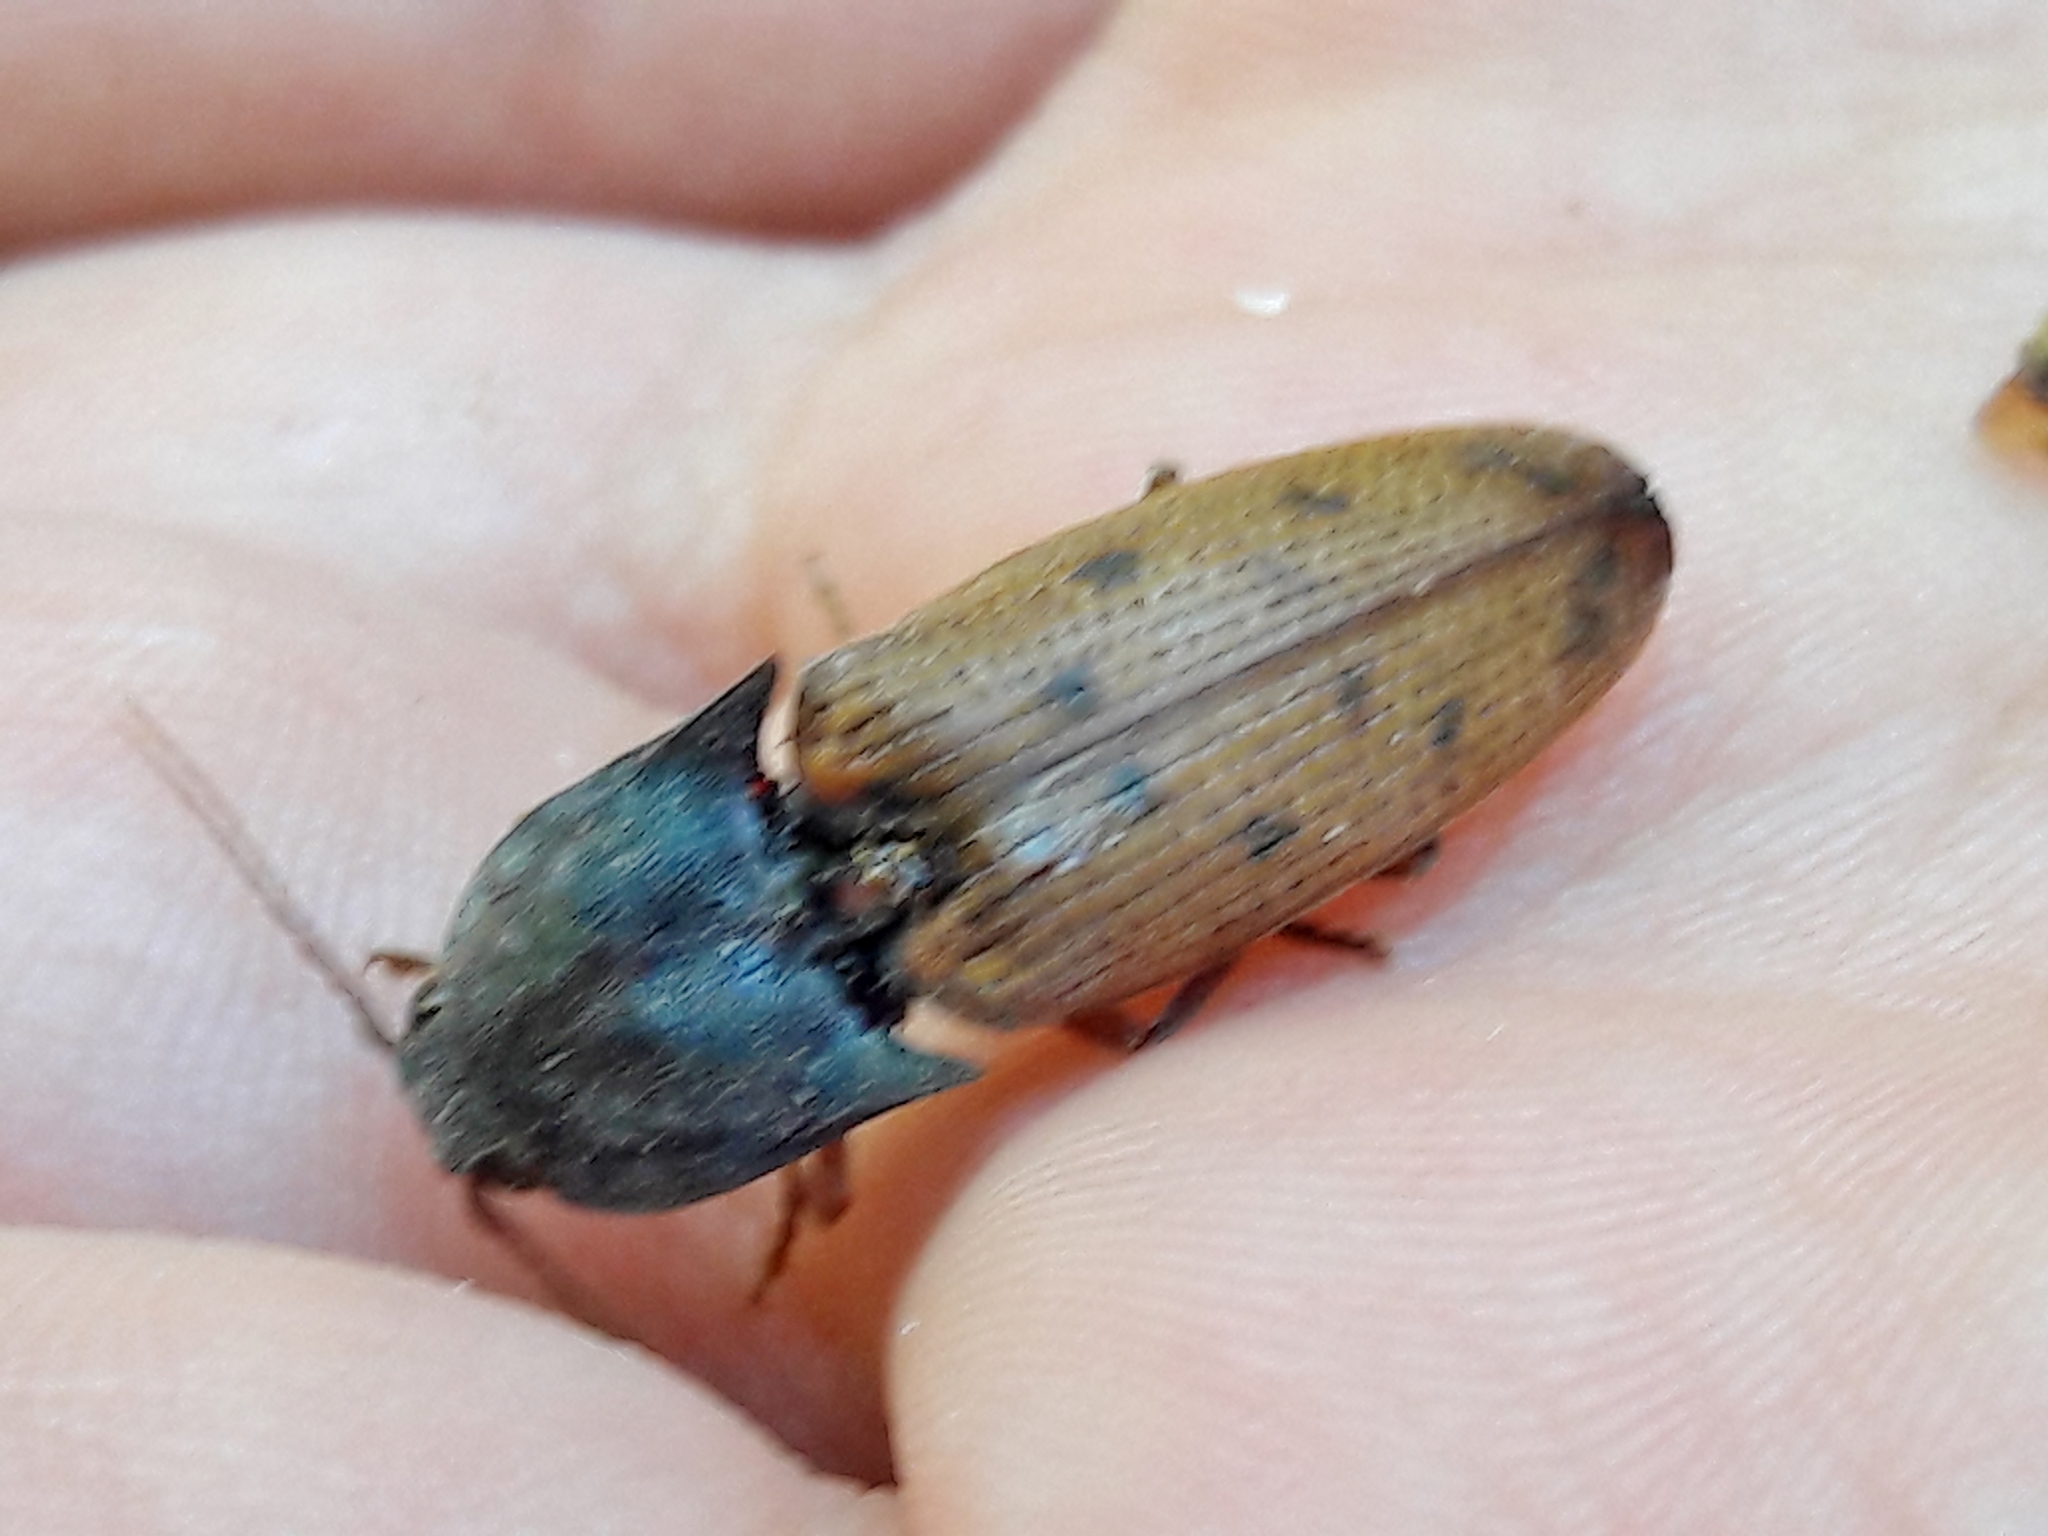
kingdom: Animalia
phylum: Arthropoda
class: Insecta
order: Coleoptera
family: Elateridae
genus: Monocrepidius
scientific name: Monocrepidius
